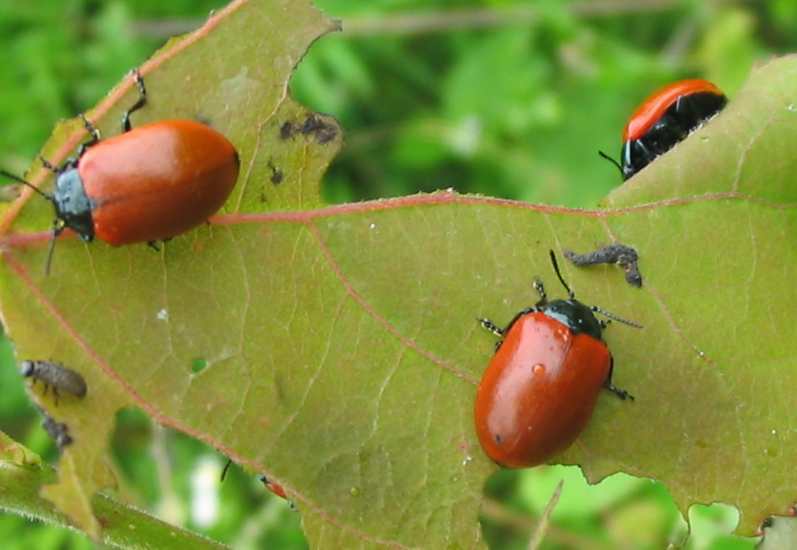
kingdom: Animalia
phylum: Arthropoda
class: Insecta
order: Coleoptera
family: Chrysomelidae
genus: Chrysomela
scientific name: Chrysomela populi
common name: Red poplar leaf beetle
